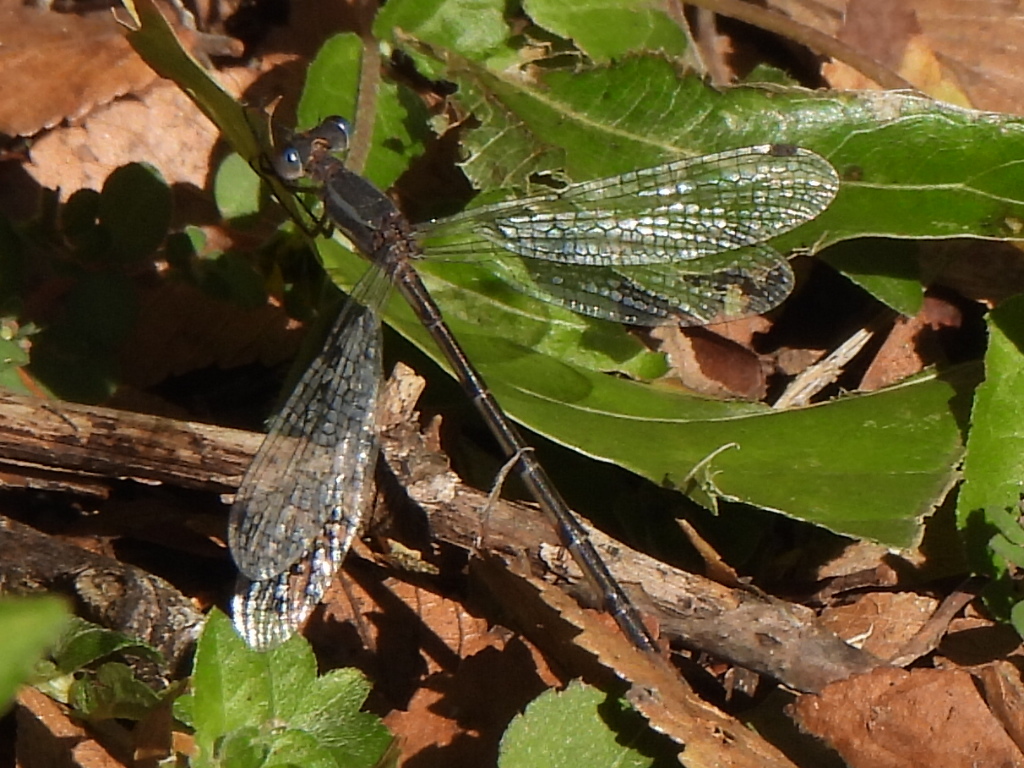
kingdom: Animalia
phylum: Arthropoda
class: Insecta
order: Odonata
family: Lestidae
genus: Lestes
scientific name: Lestes australis
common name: Southern spreadwing
